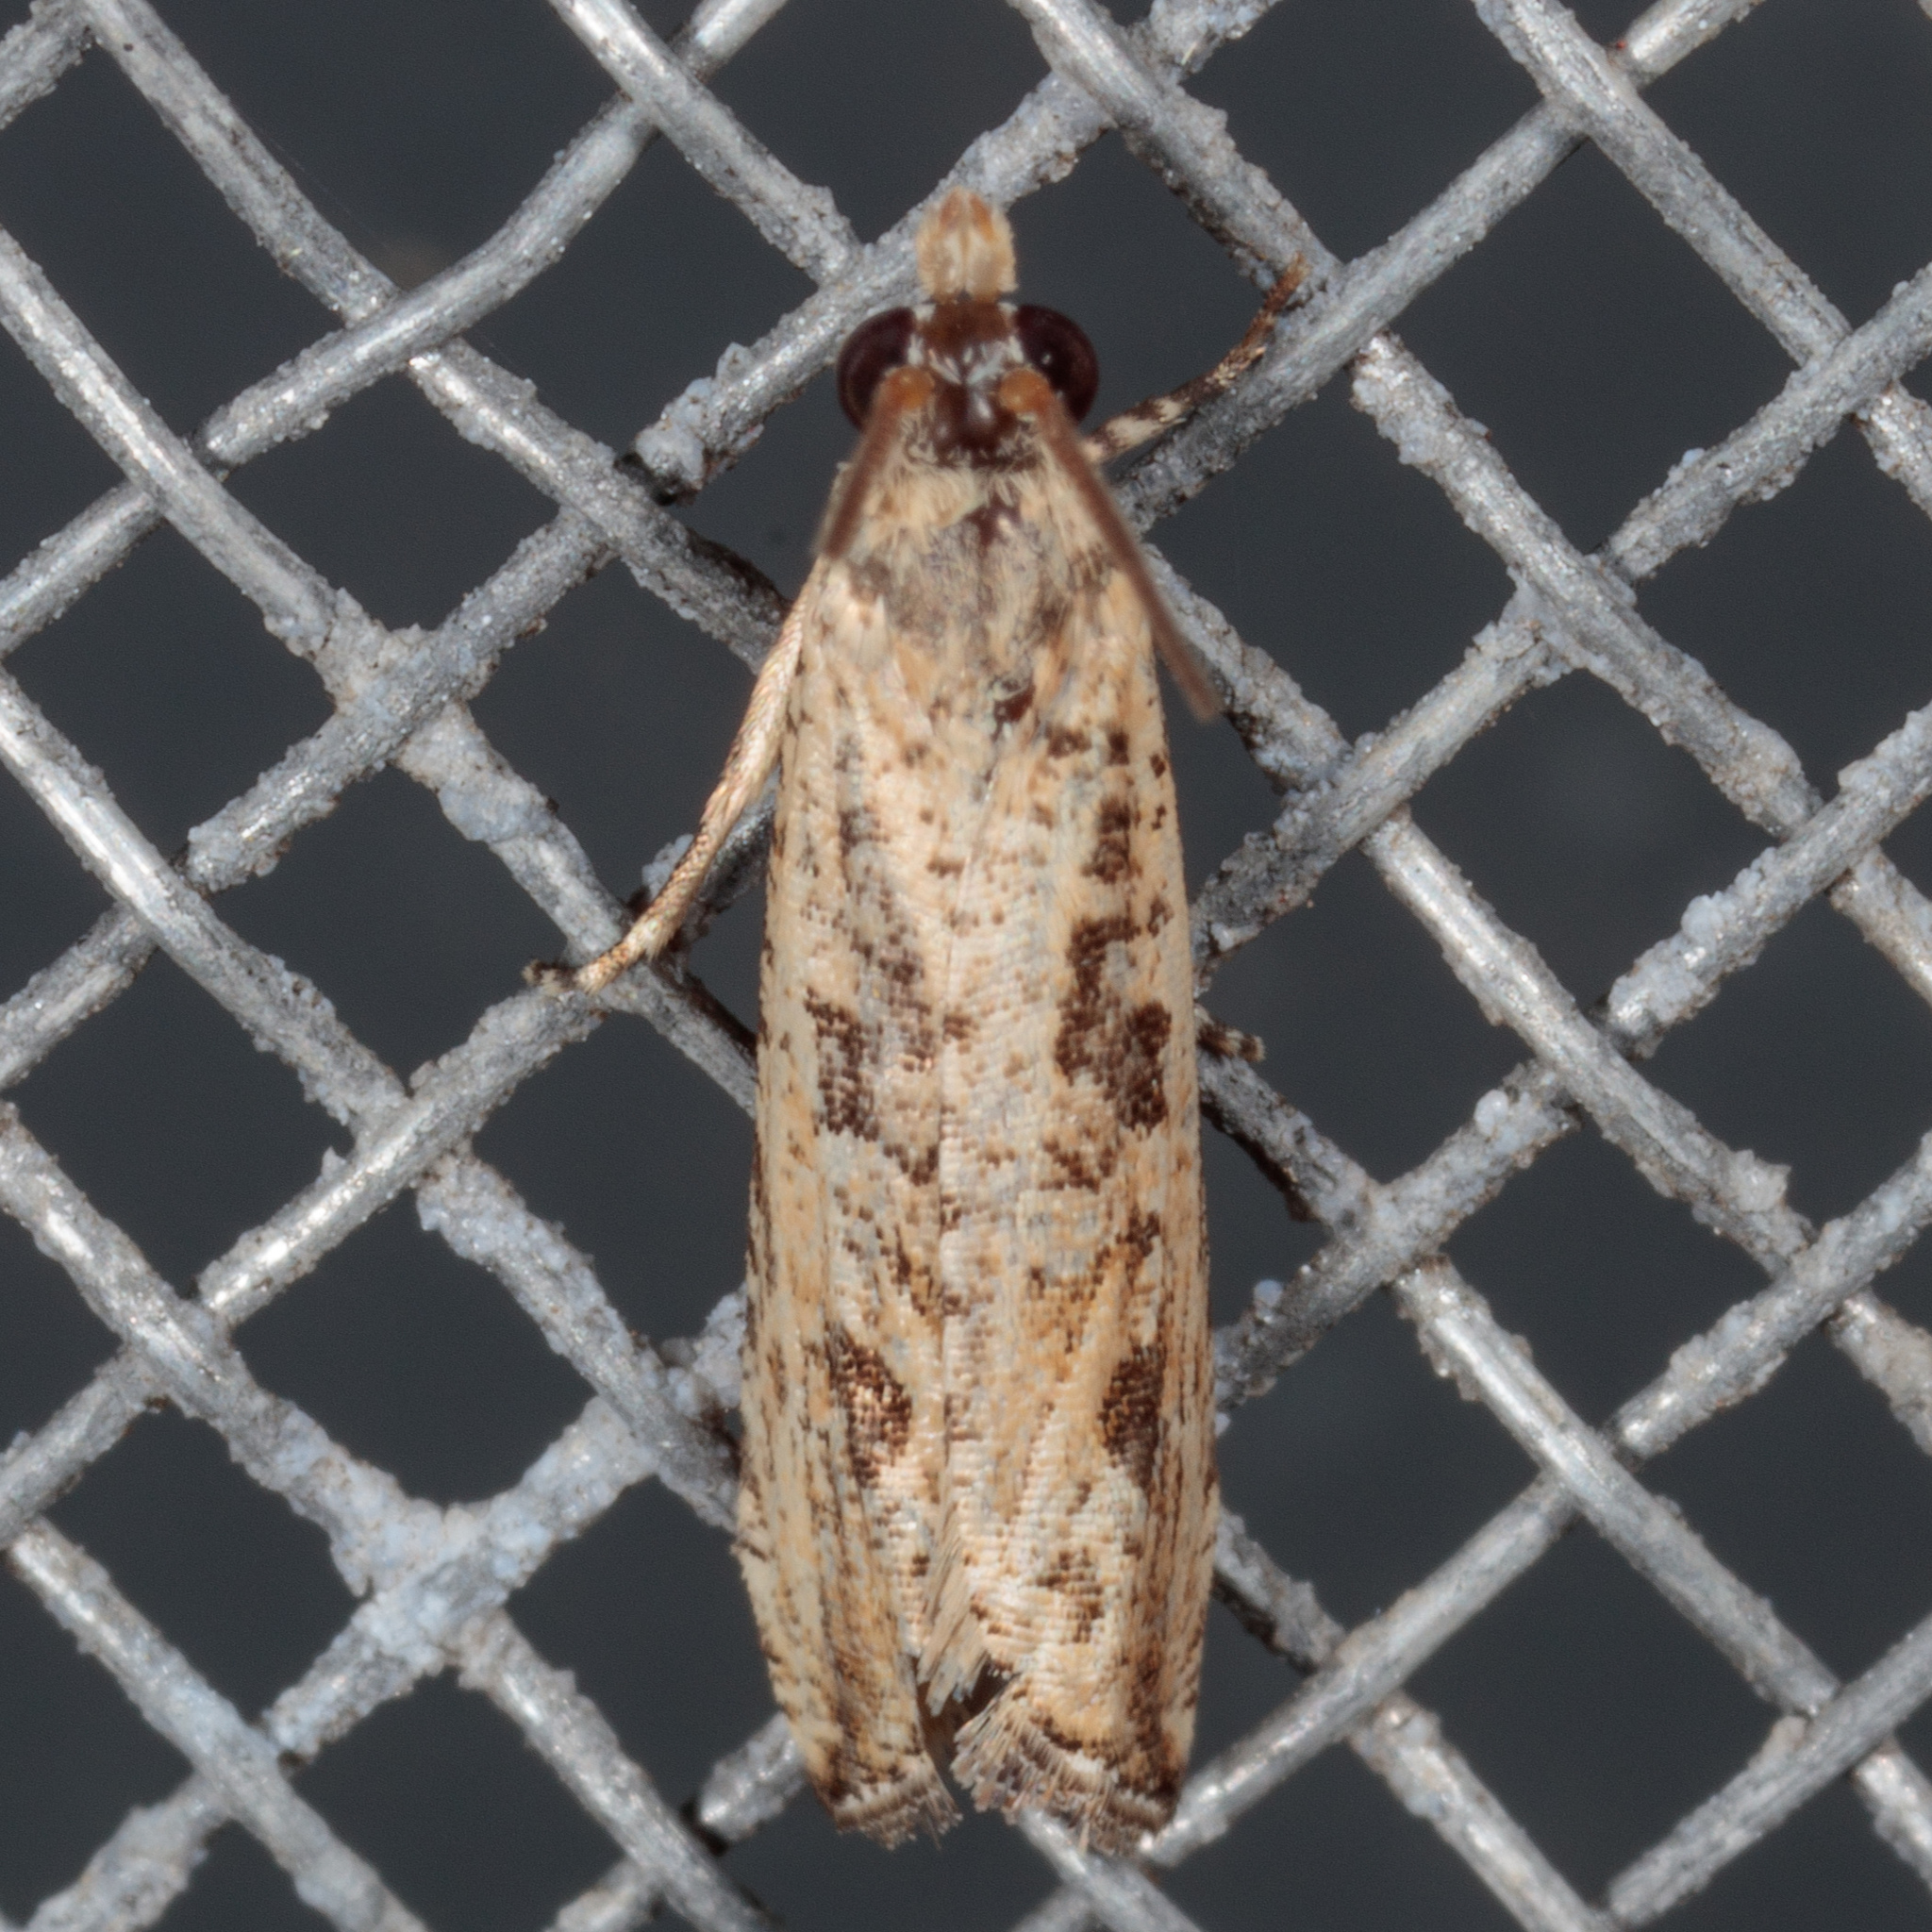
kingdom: Animalia
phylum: Arthropoda
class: Insecta
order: Lepidoptera
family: Tortricidae
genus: Bactra
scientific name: Bactra verutana
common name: Javelin moth
